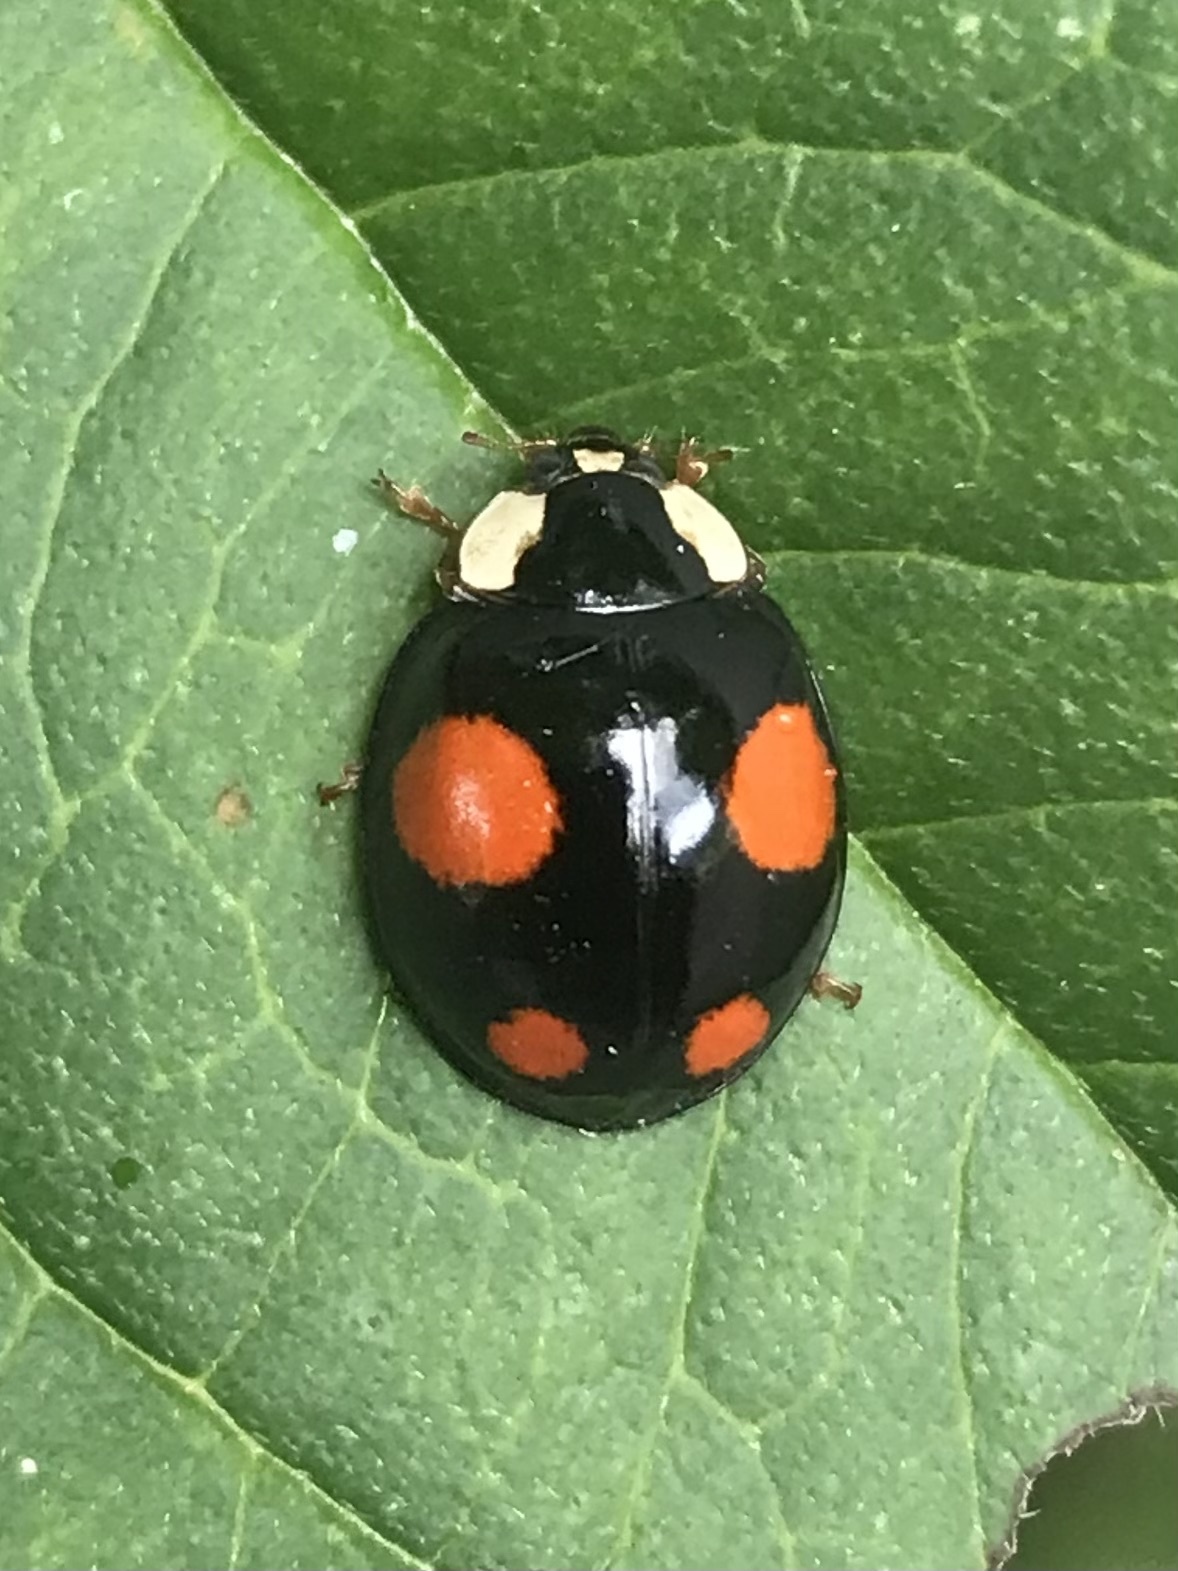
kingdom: Animalia
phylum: Arthropoda
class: Insecta
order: Coleoptera
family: Coccinellidae
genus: Harmonia
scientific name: Harmonia axyridis
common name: Harlequin ladybird
